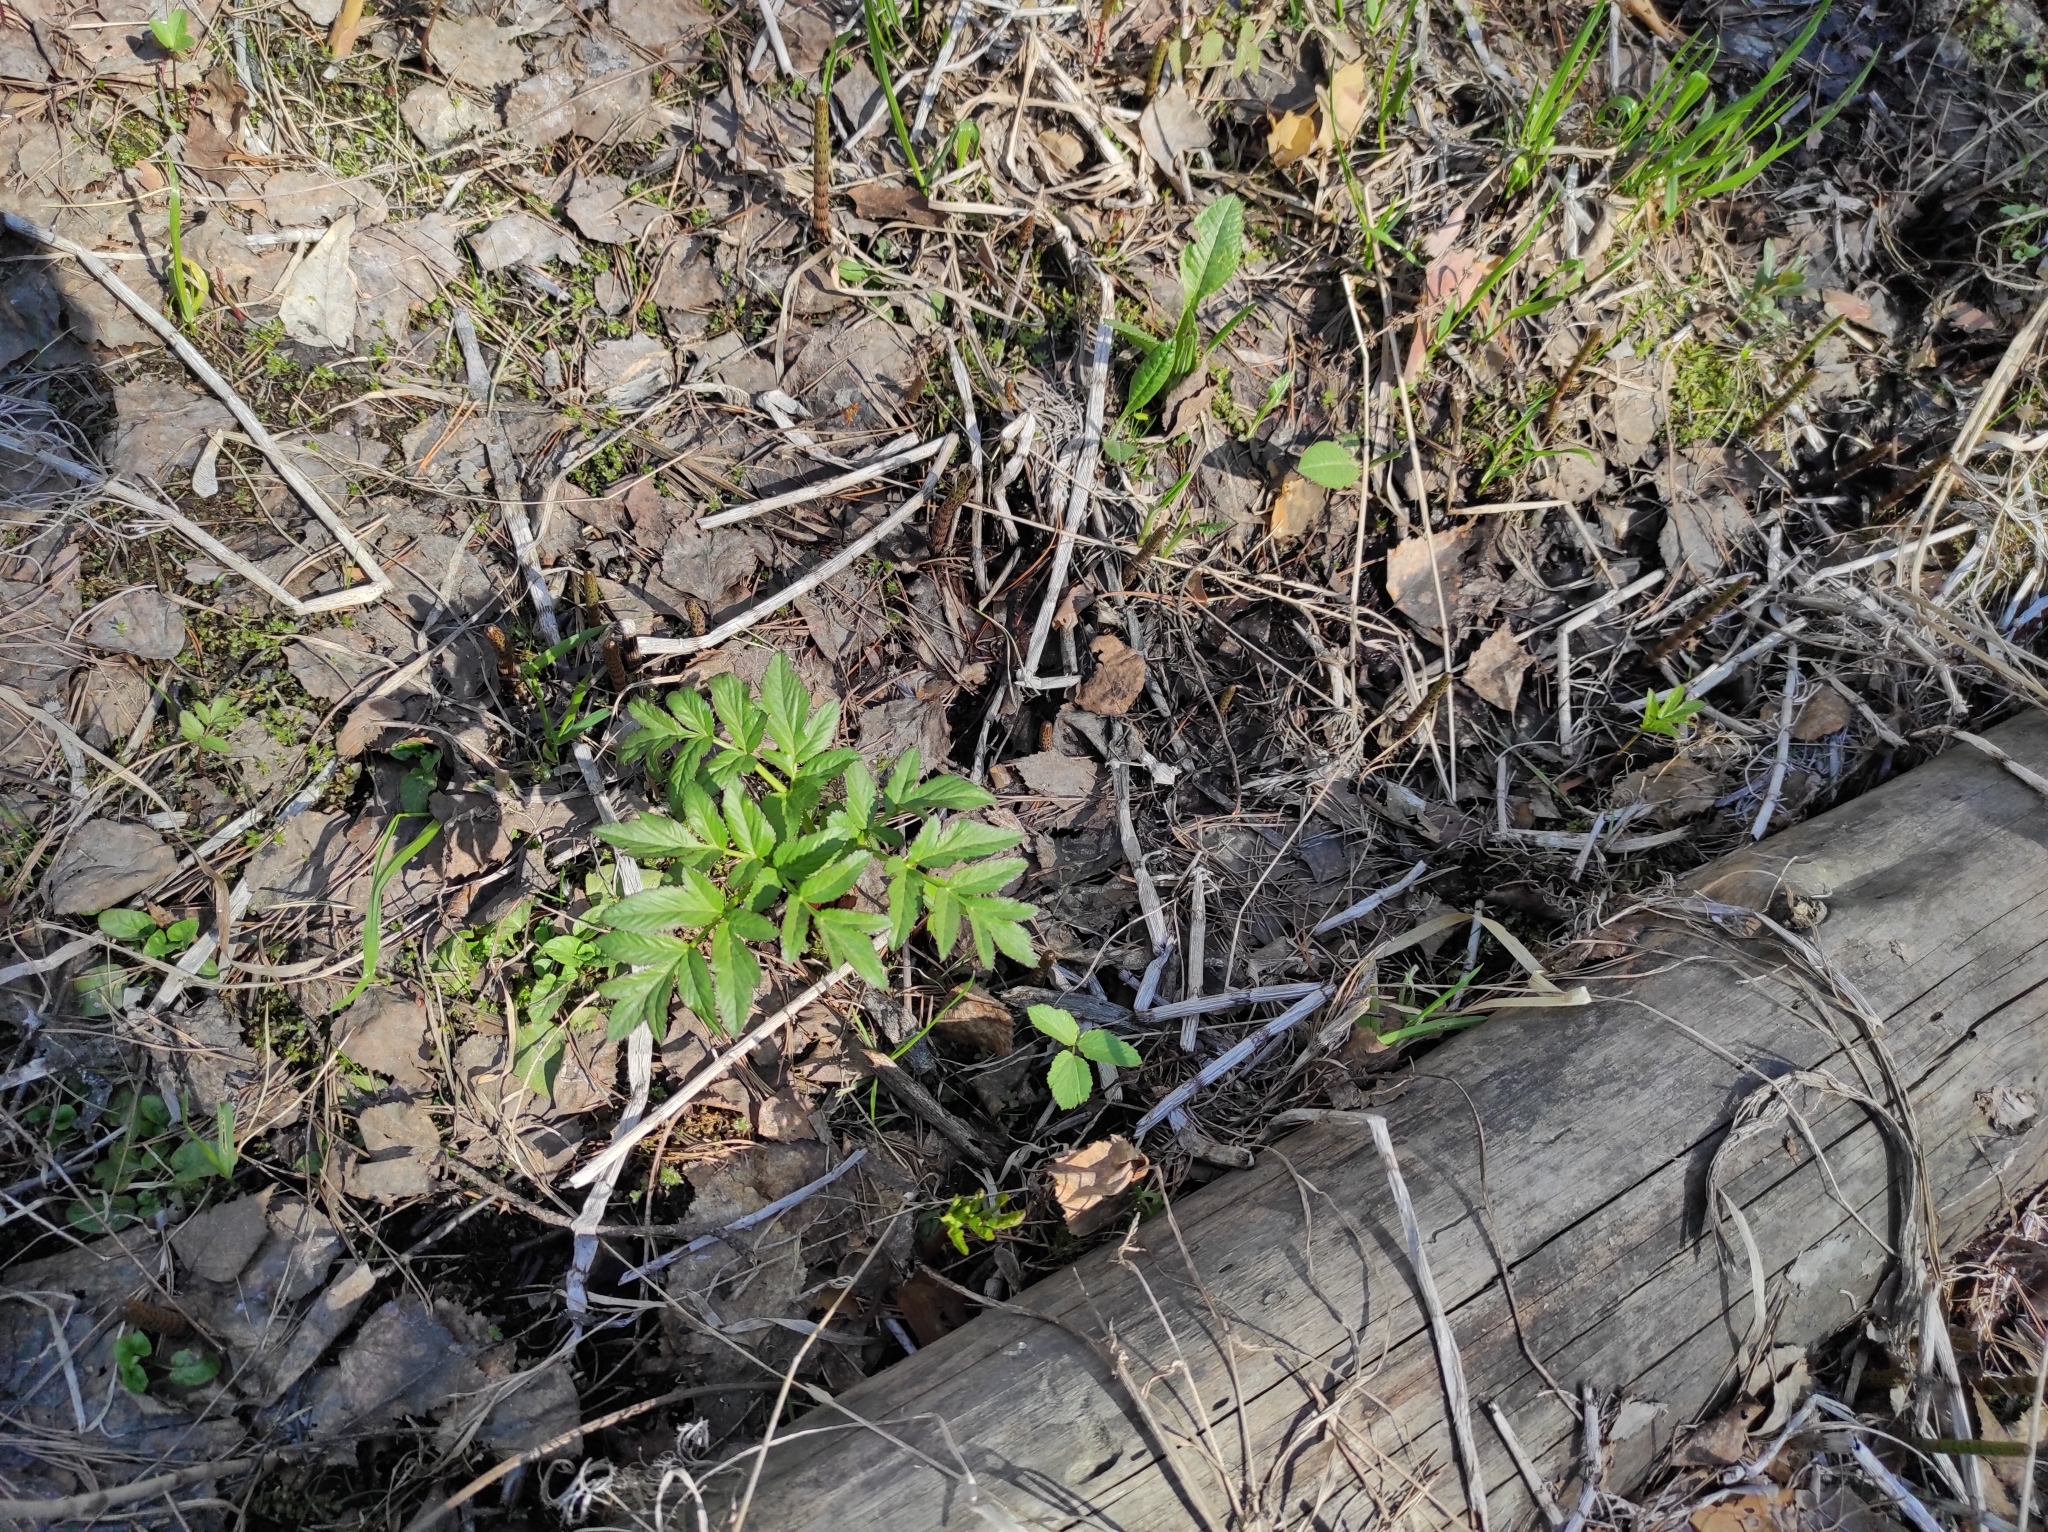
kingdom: Plantae
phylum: Tracheophyta
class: Magnoliopsida
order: Apiales
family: Apiaceae
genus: Angelica
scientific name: Angelica decurrens
